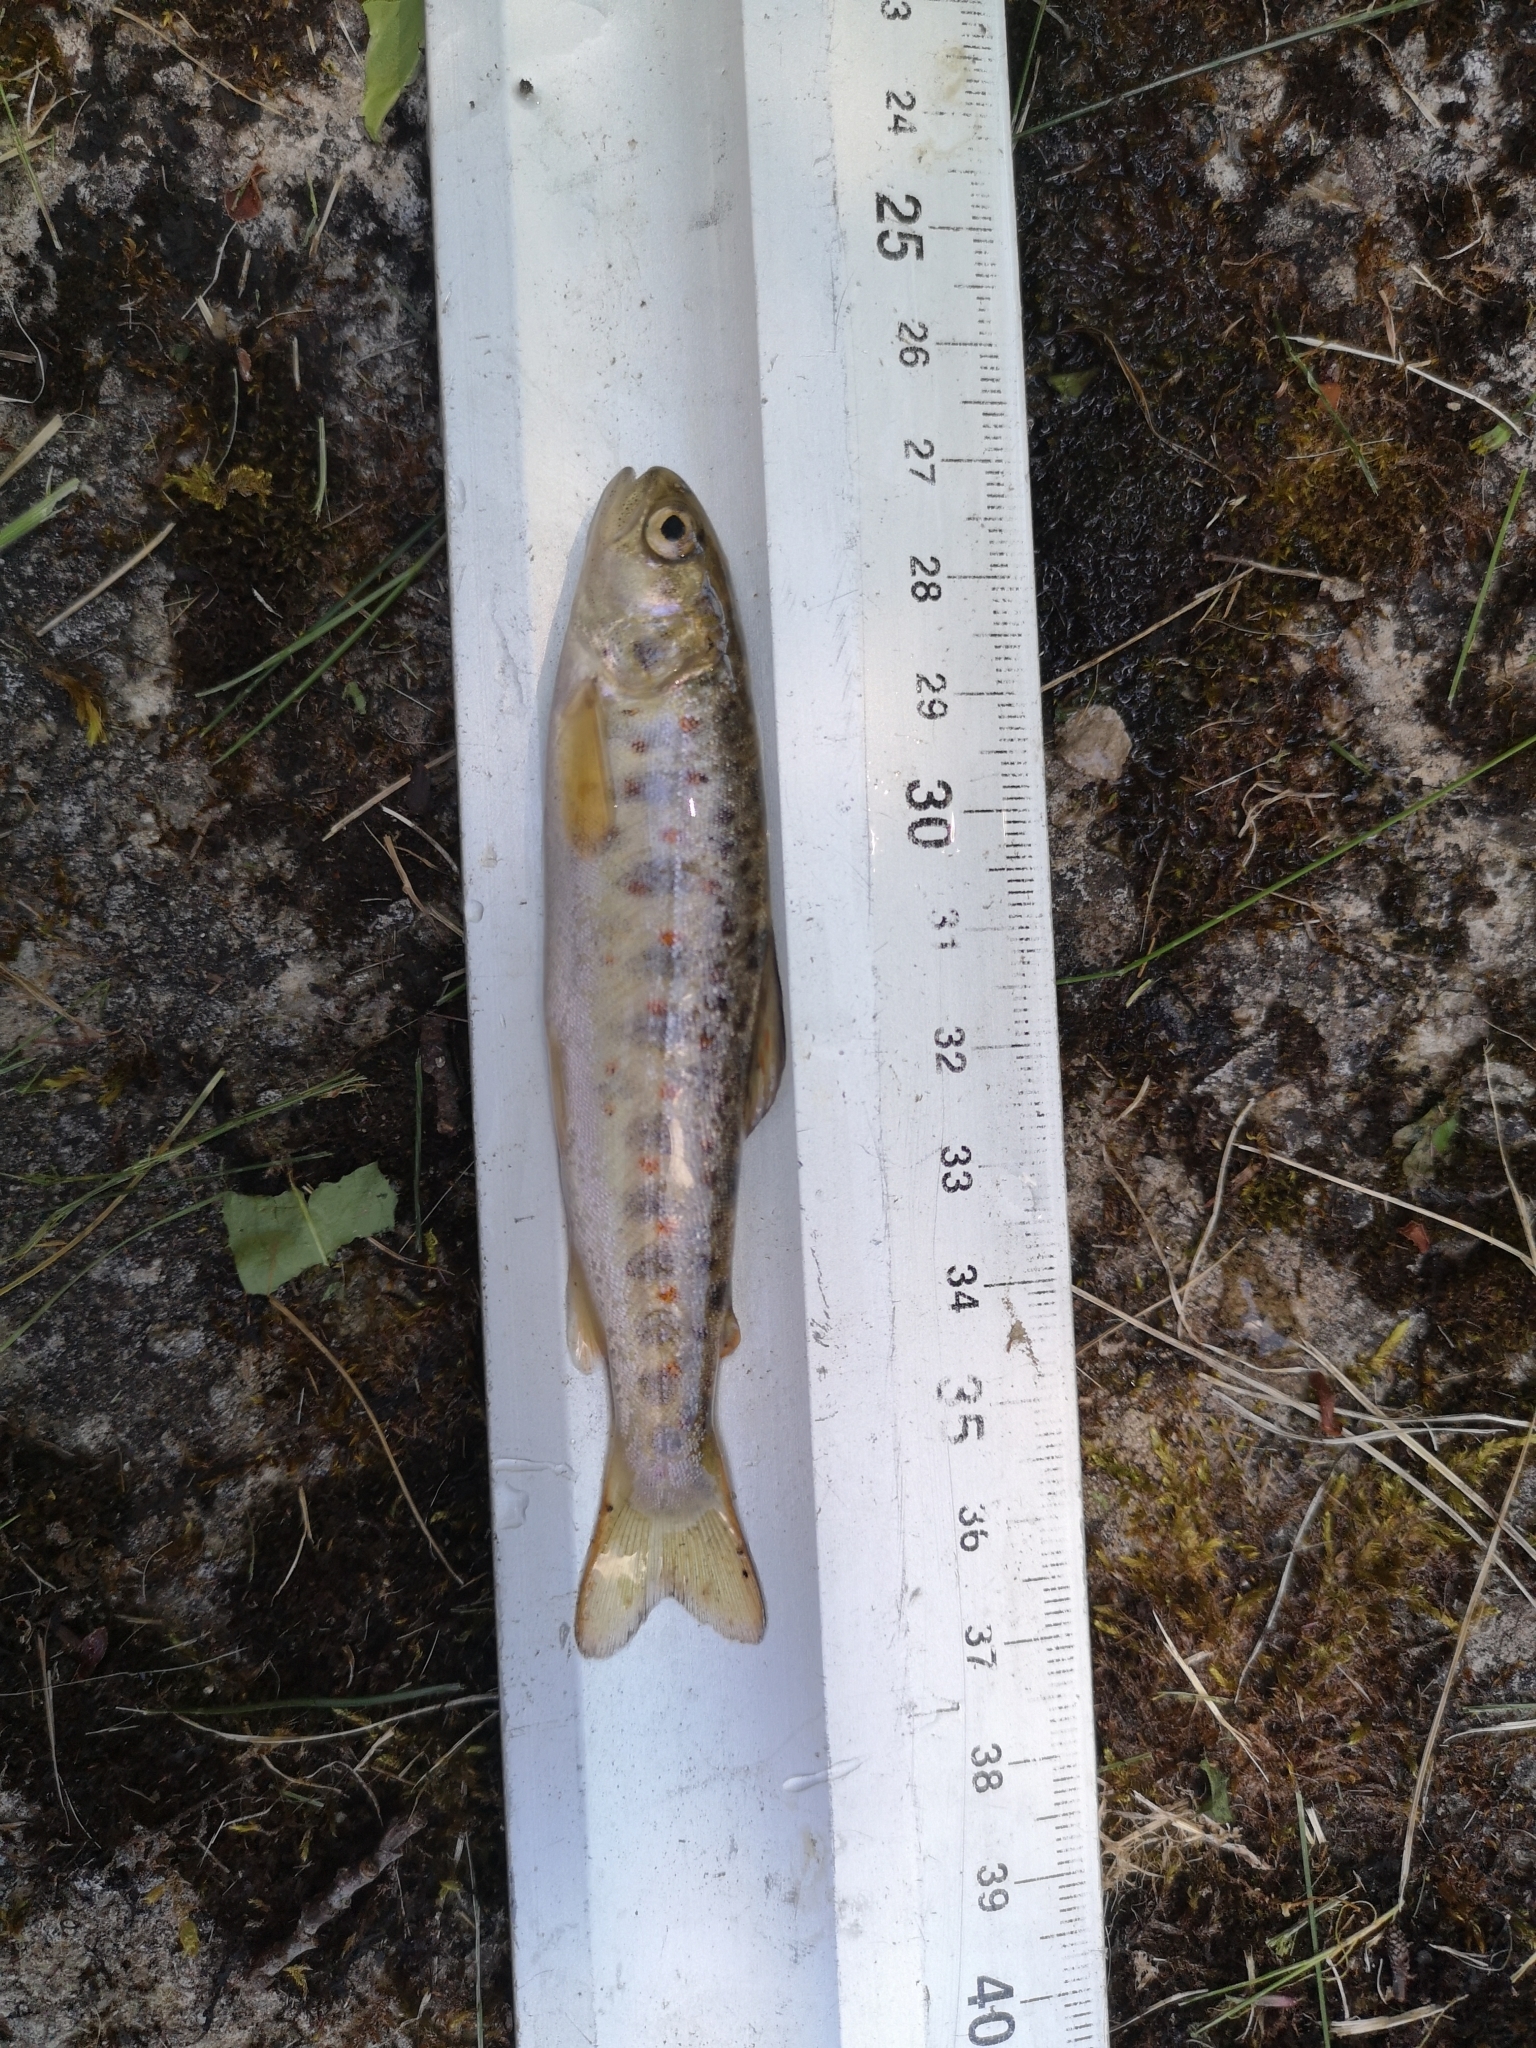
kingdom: Animalia
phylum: Chordata
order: Salmoniformes
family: Salmonidae
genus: Salmo
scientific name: Salmo labrax
